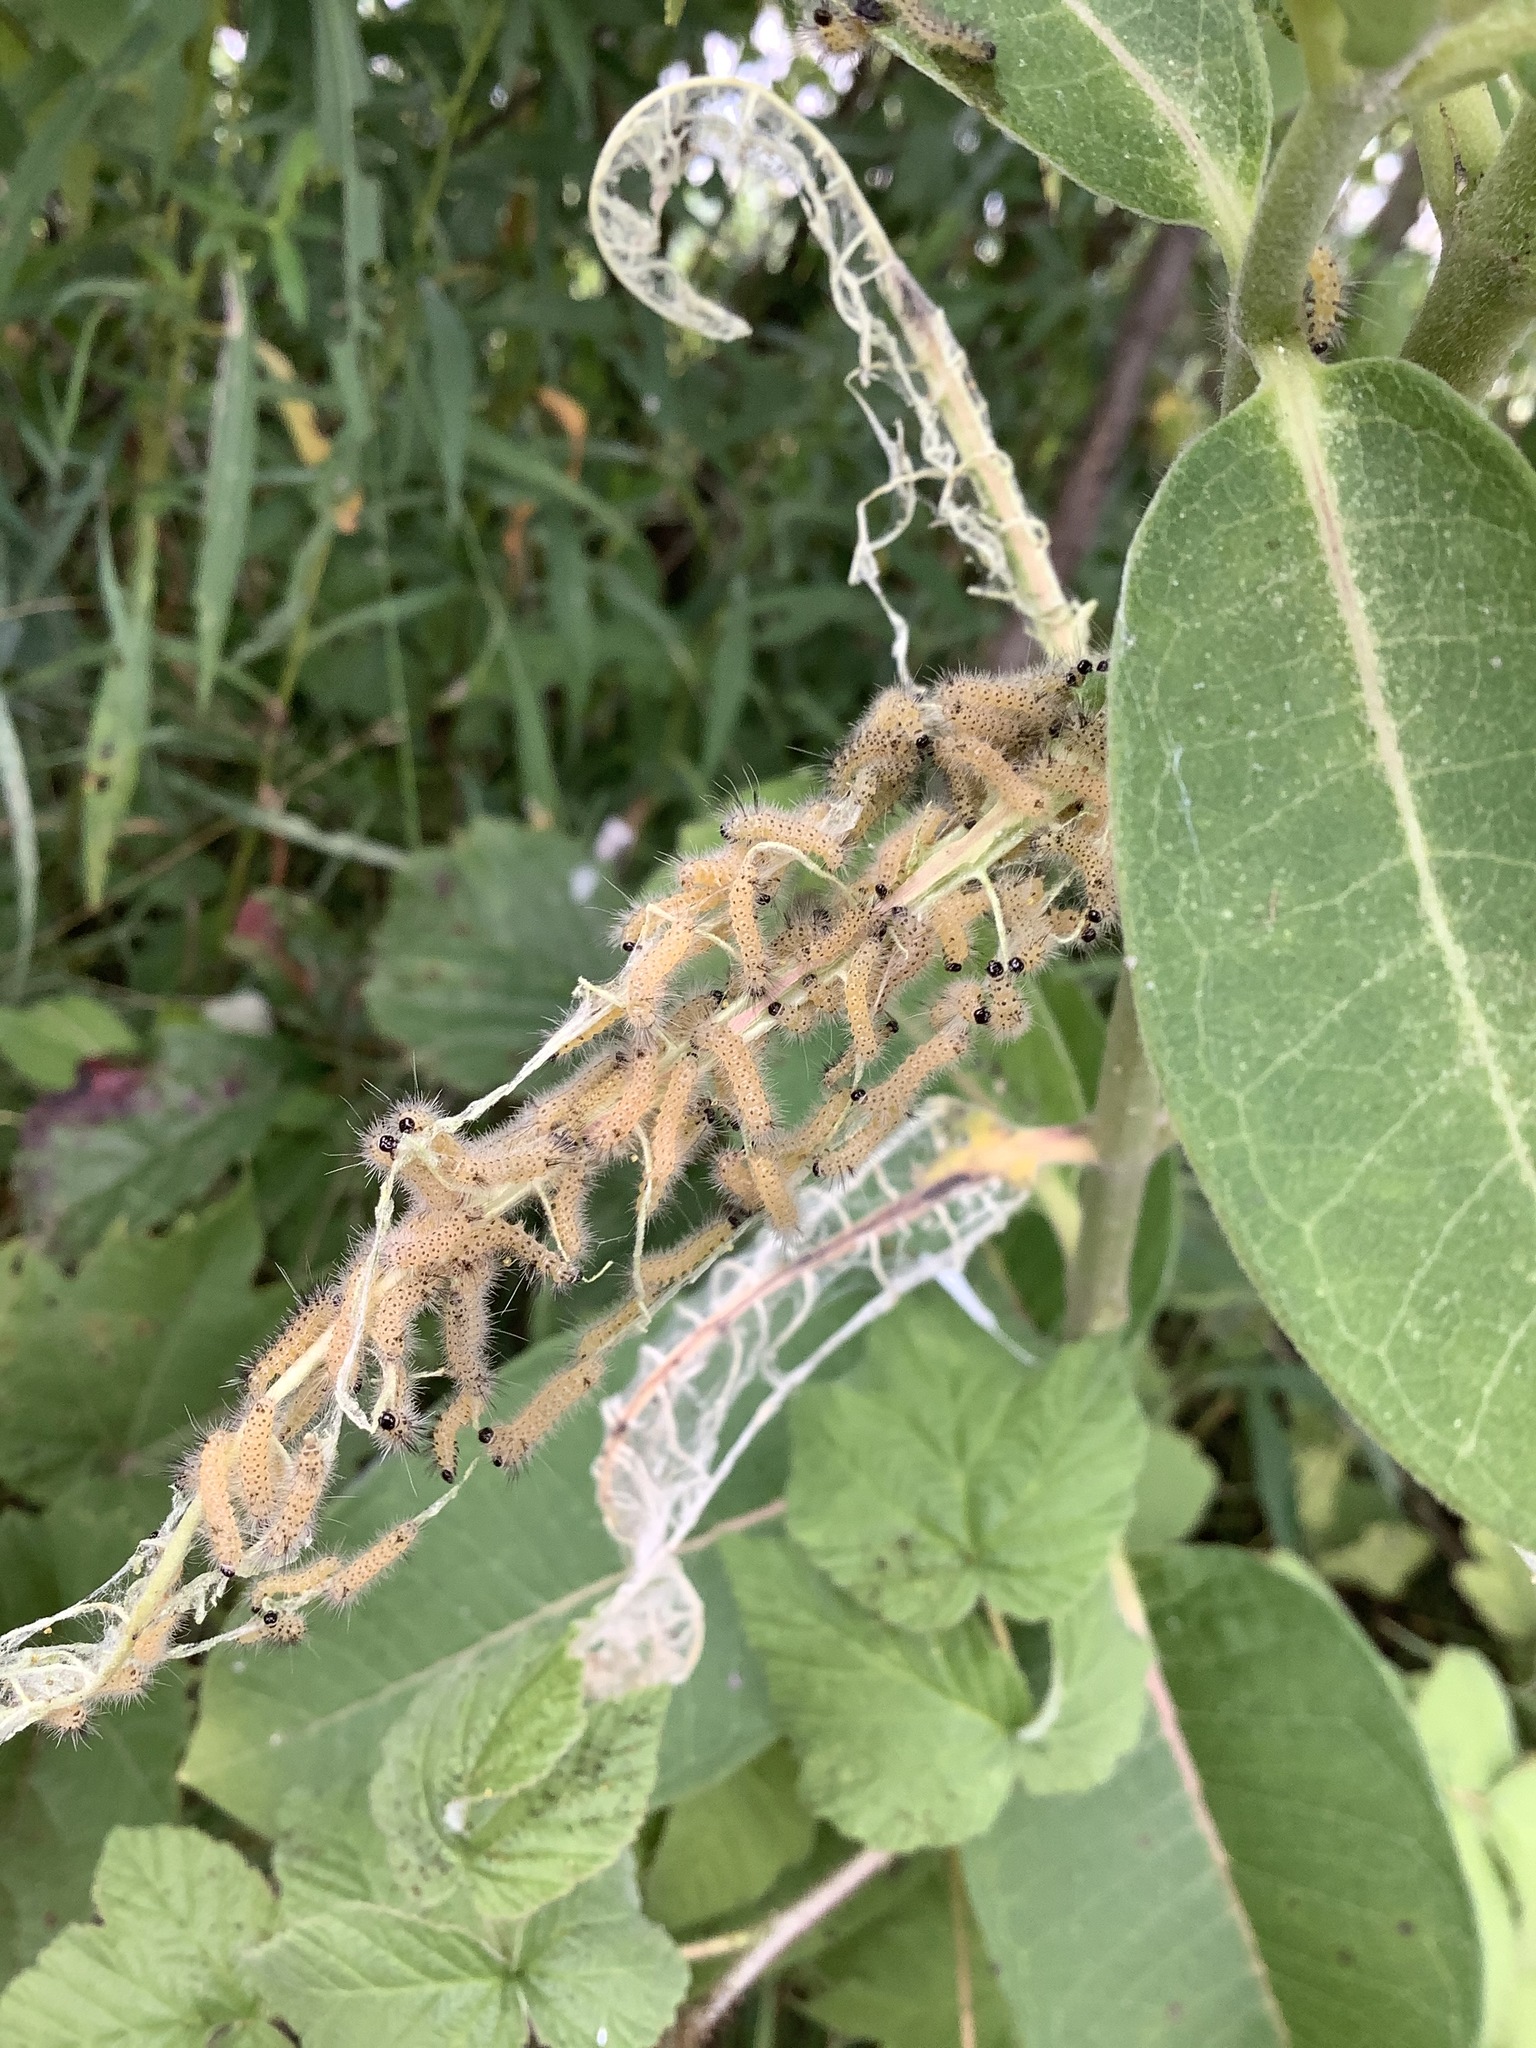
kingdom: Animalia
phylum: Arthropoda
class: Insecta
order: Lepidoptera
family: Erebidae
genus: Euchaetes
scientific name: Euchaetes egle
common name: Milkweed tussock moth
